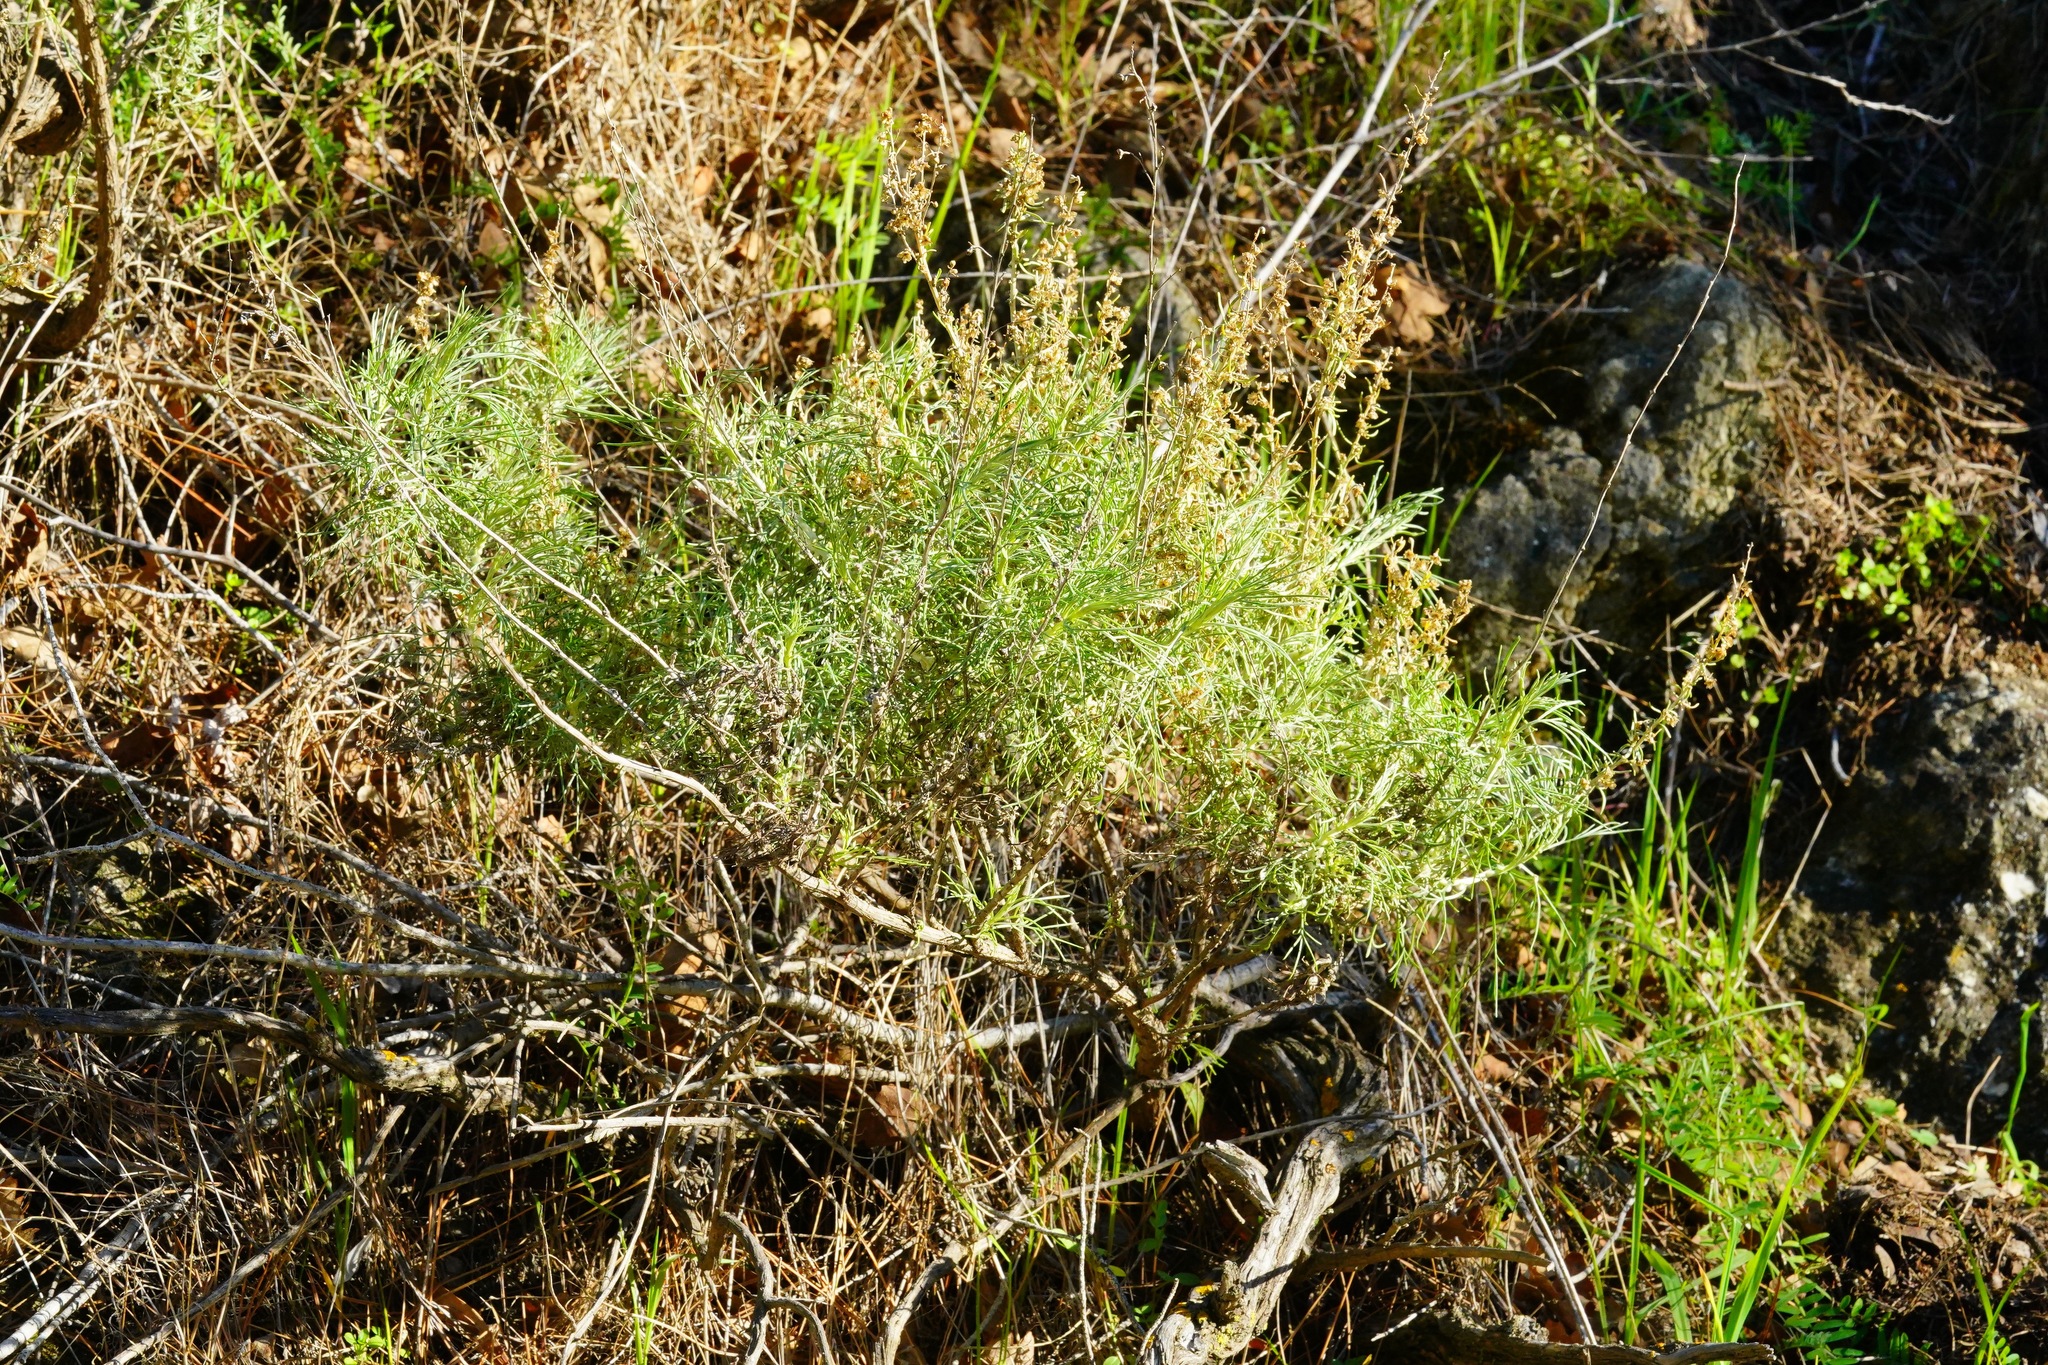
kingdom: Plantae
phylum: Tracheophyta
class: Magnoliopsida
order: Asterales
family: Asteraceae
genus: Artemisia
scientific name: Artemisia californica
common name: California sagebrush
